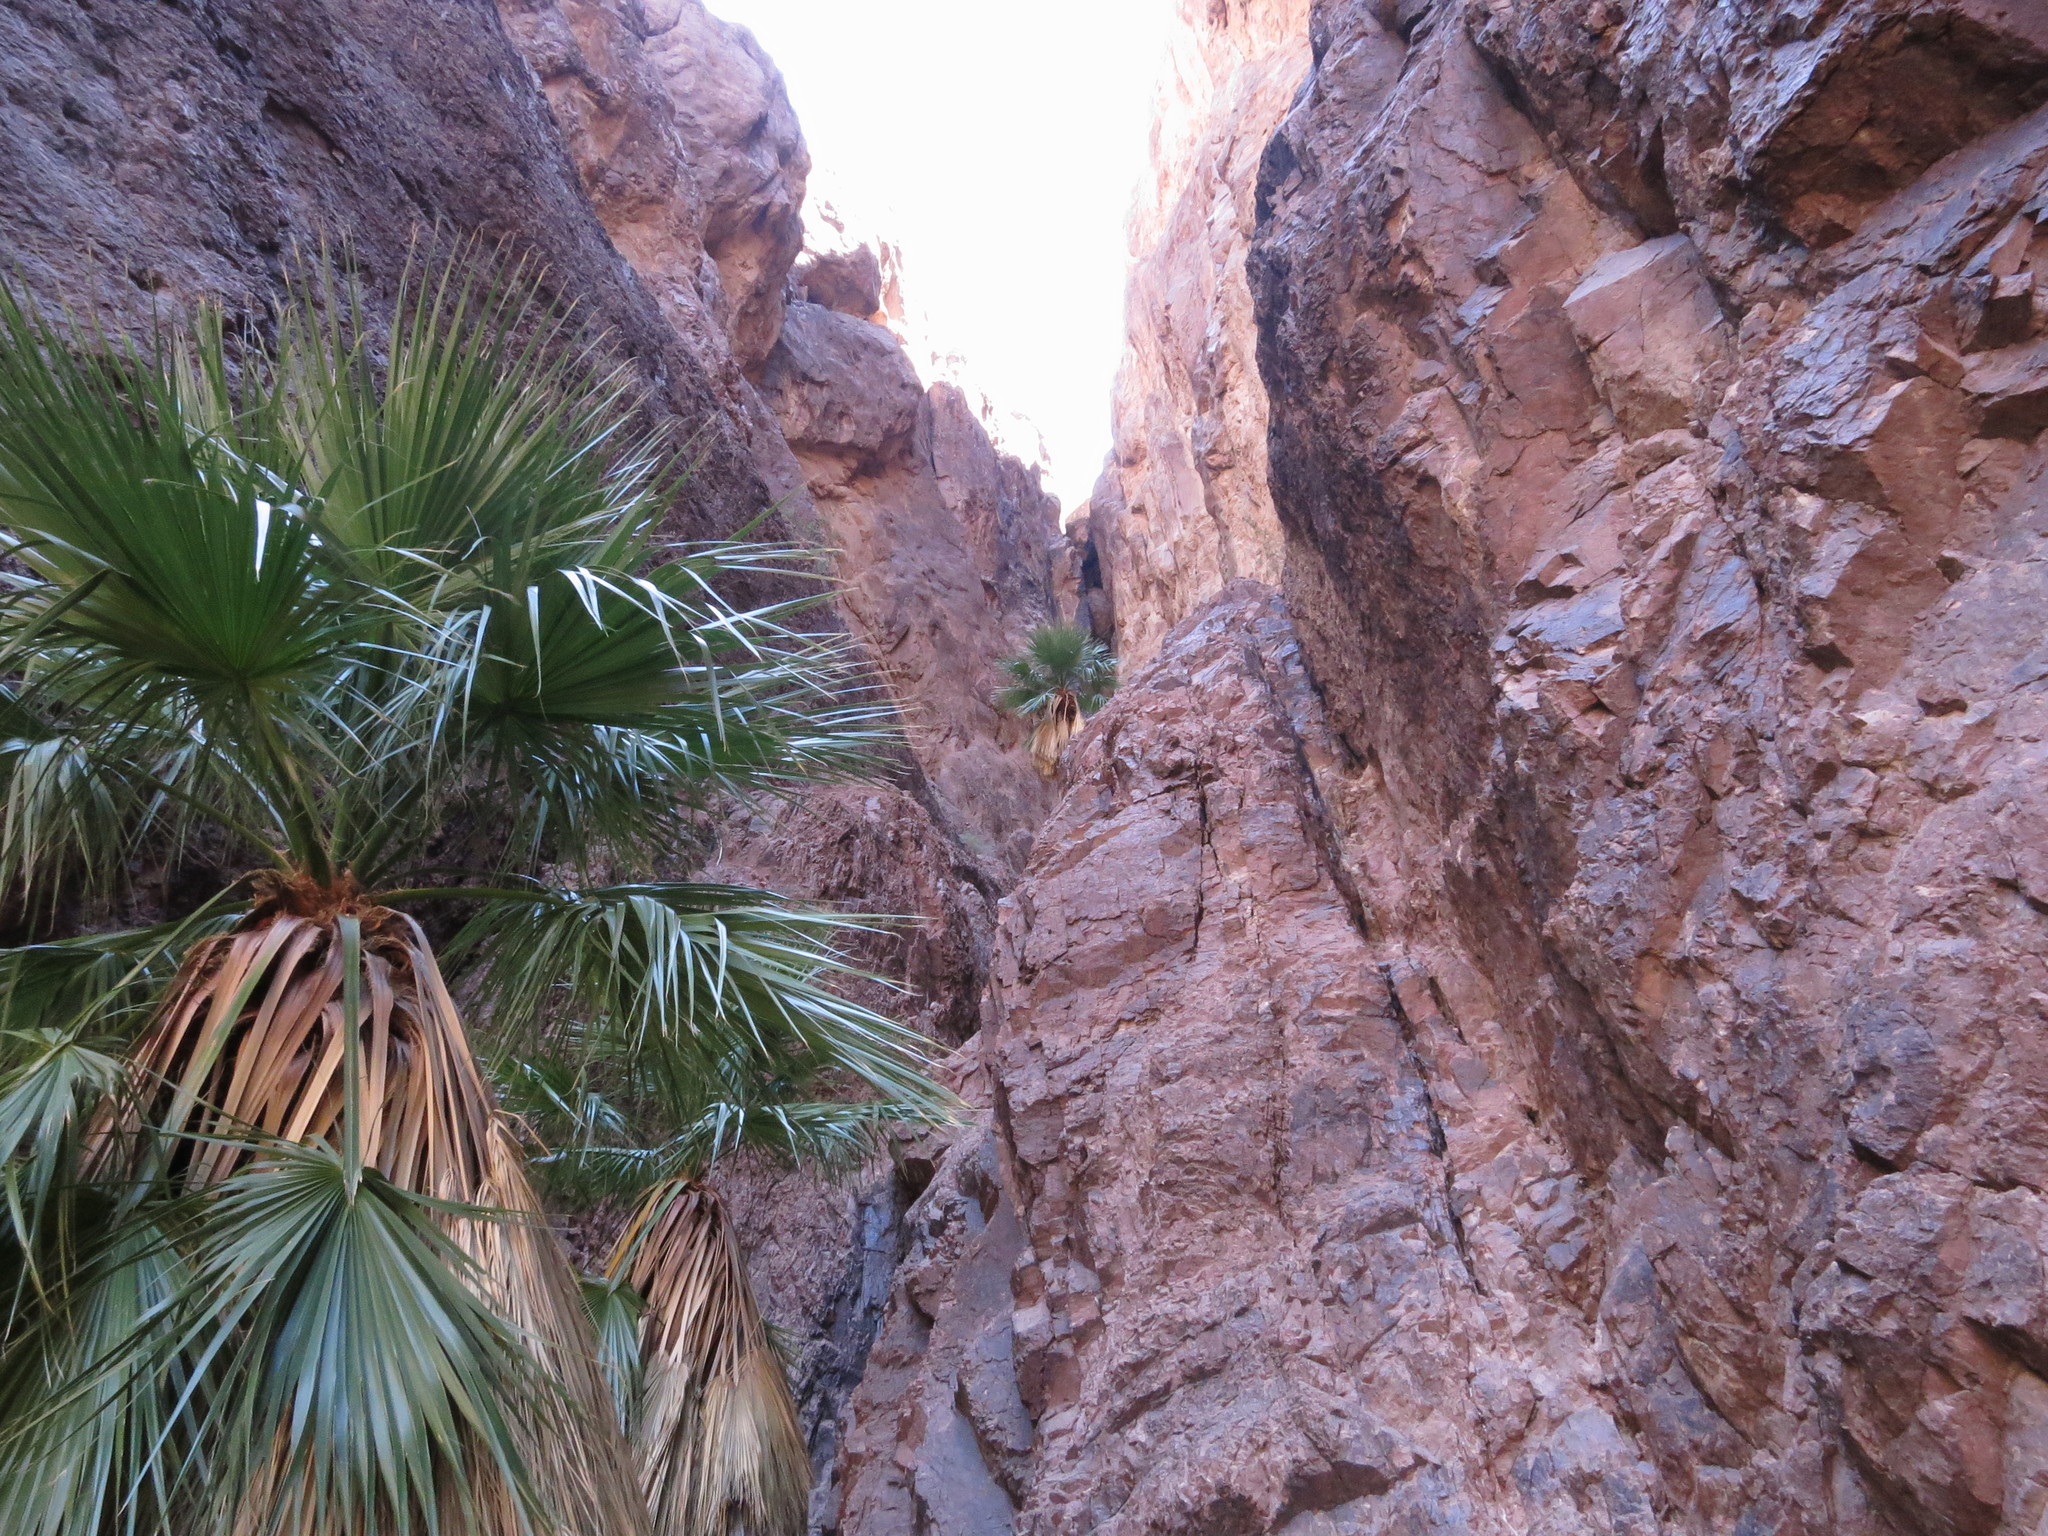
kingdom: Plantae
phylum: Tracheophyta
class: Liliopsida
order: Arecales
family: Arecaceae
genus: Washingtonia
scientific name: Washingtonia filifera
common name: California fan palm
